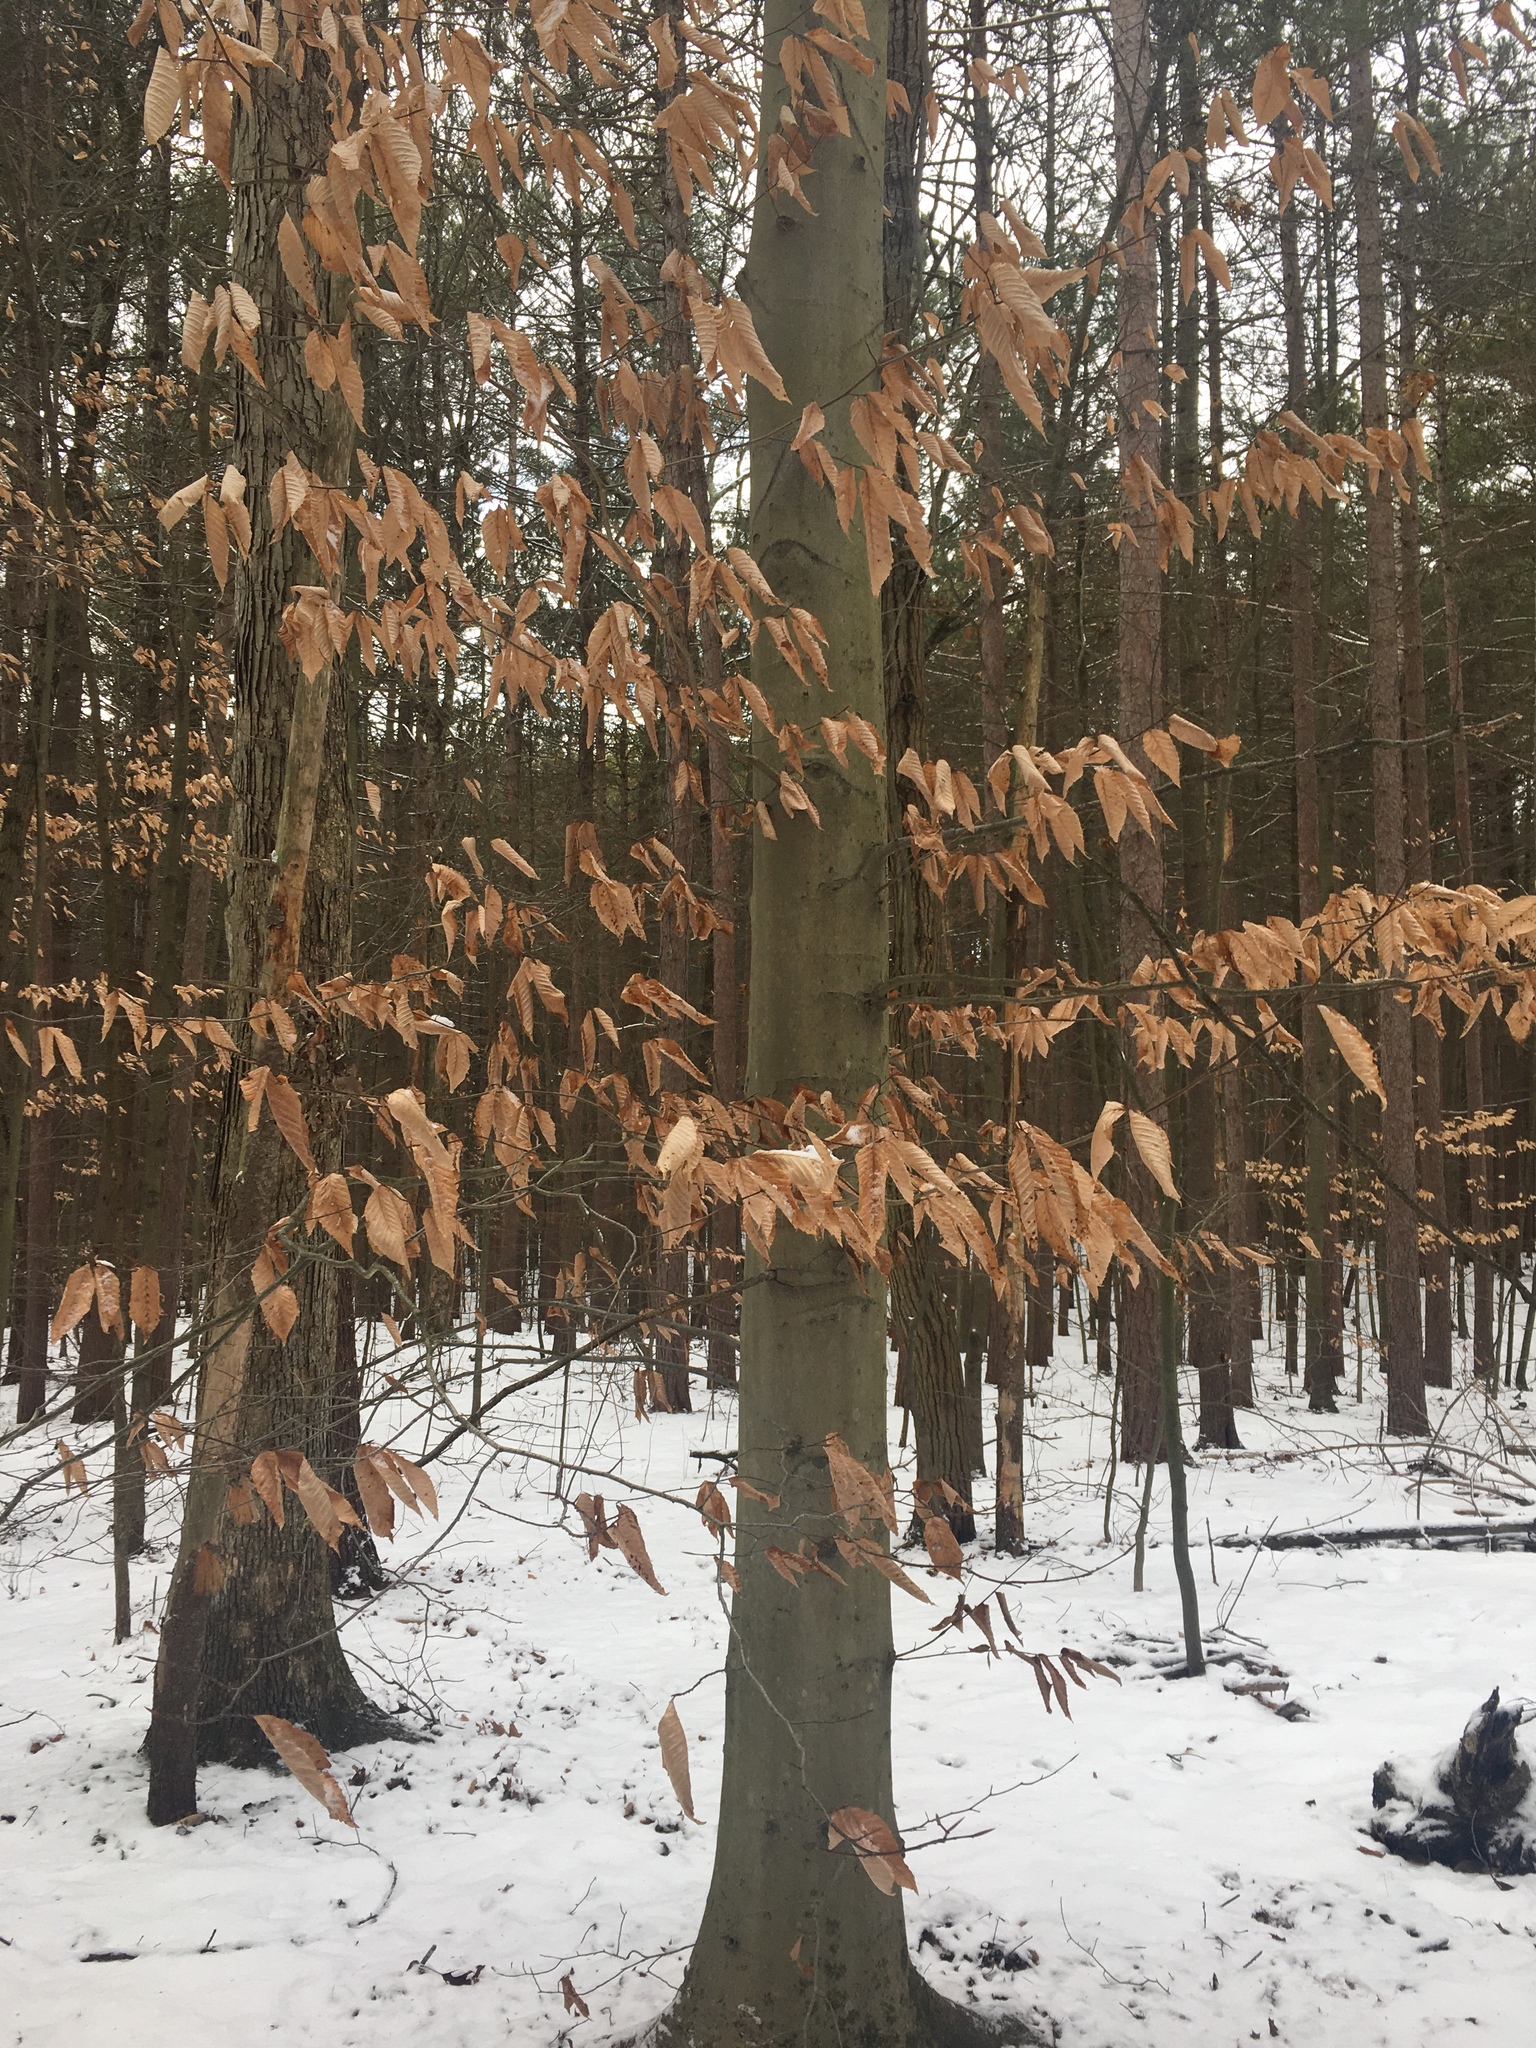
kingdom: Plantae
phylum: Tracheophyta
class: Magnoliopsida
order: Fagales
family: Fagaceae
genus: Fagus
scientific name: Fagus grandifolia
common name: American beech
